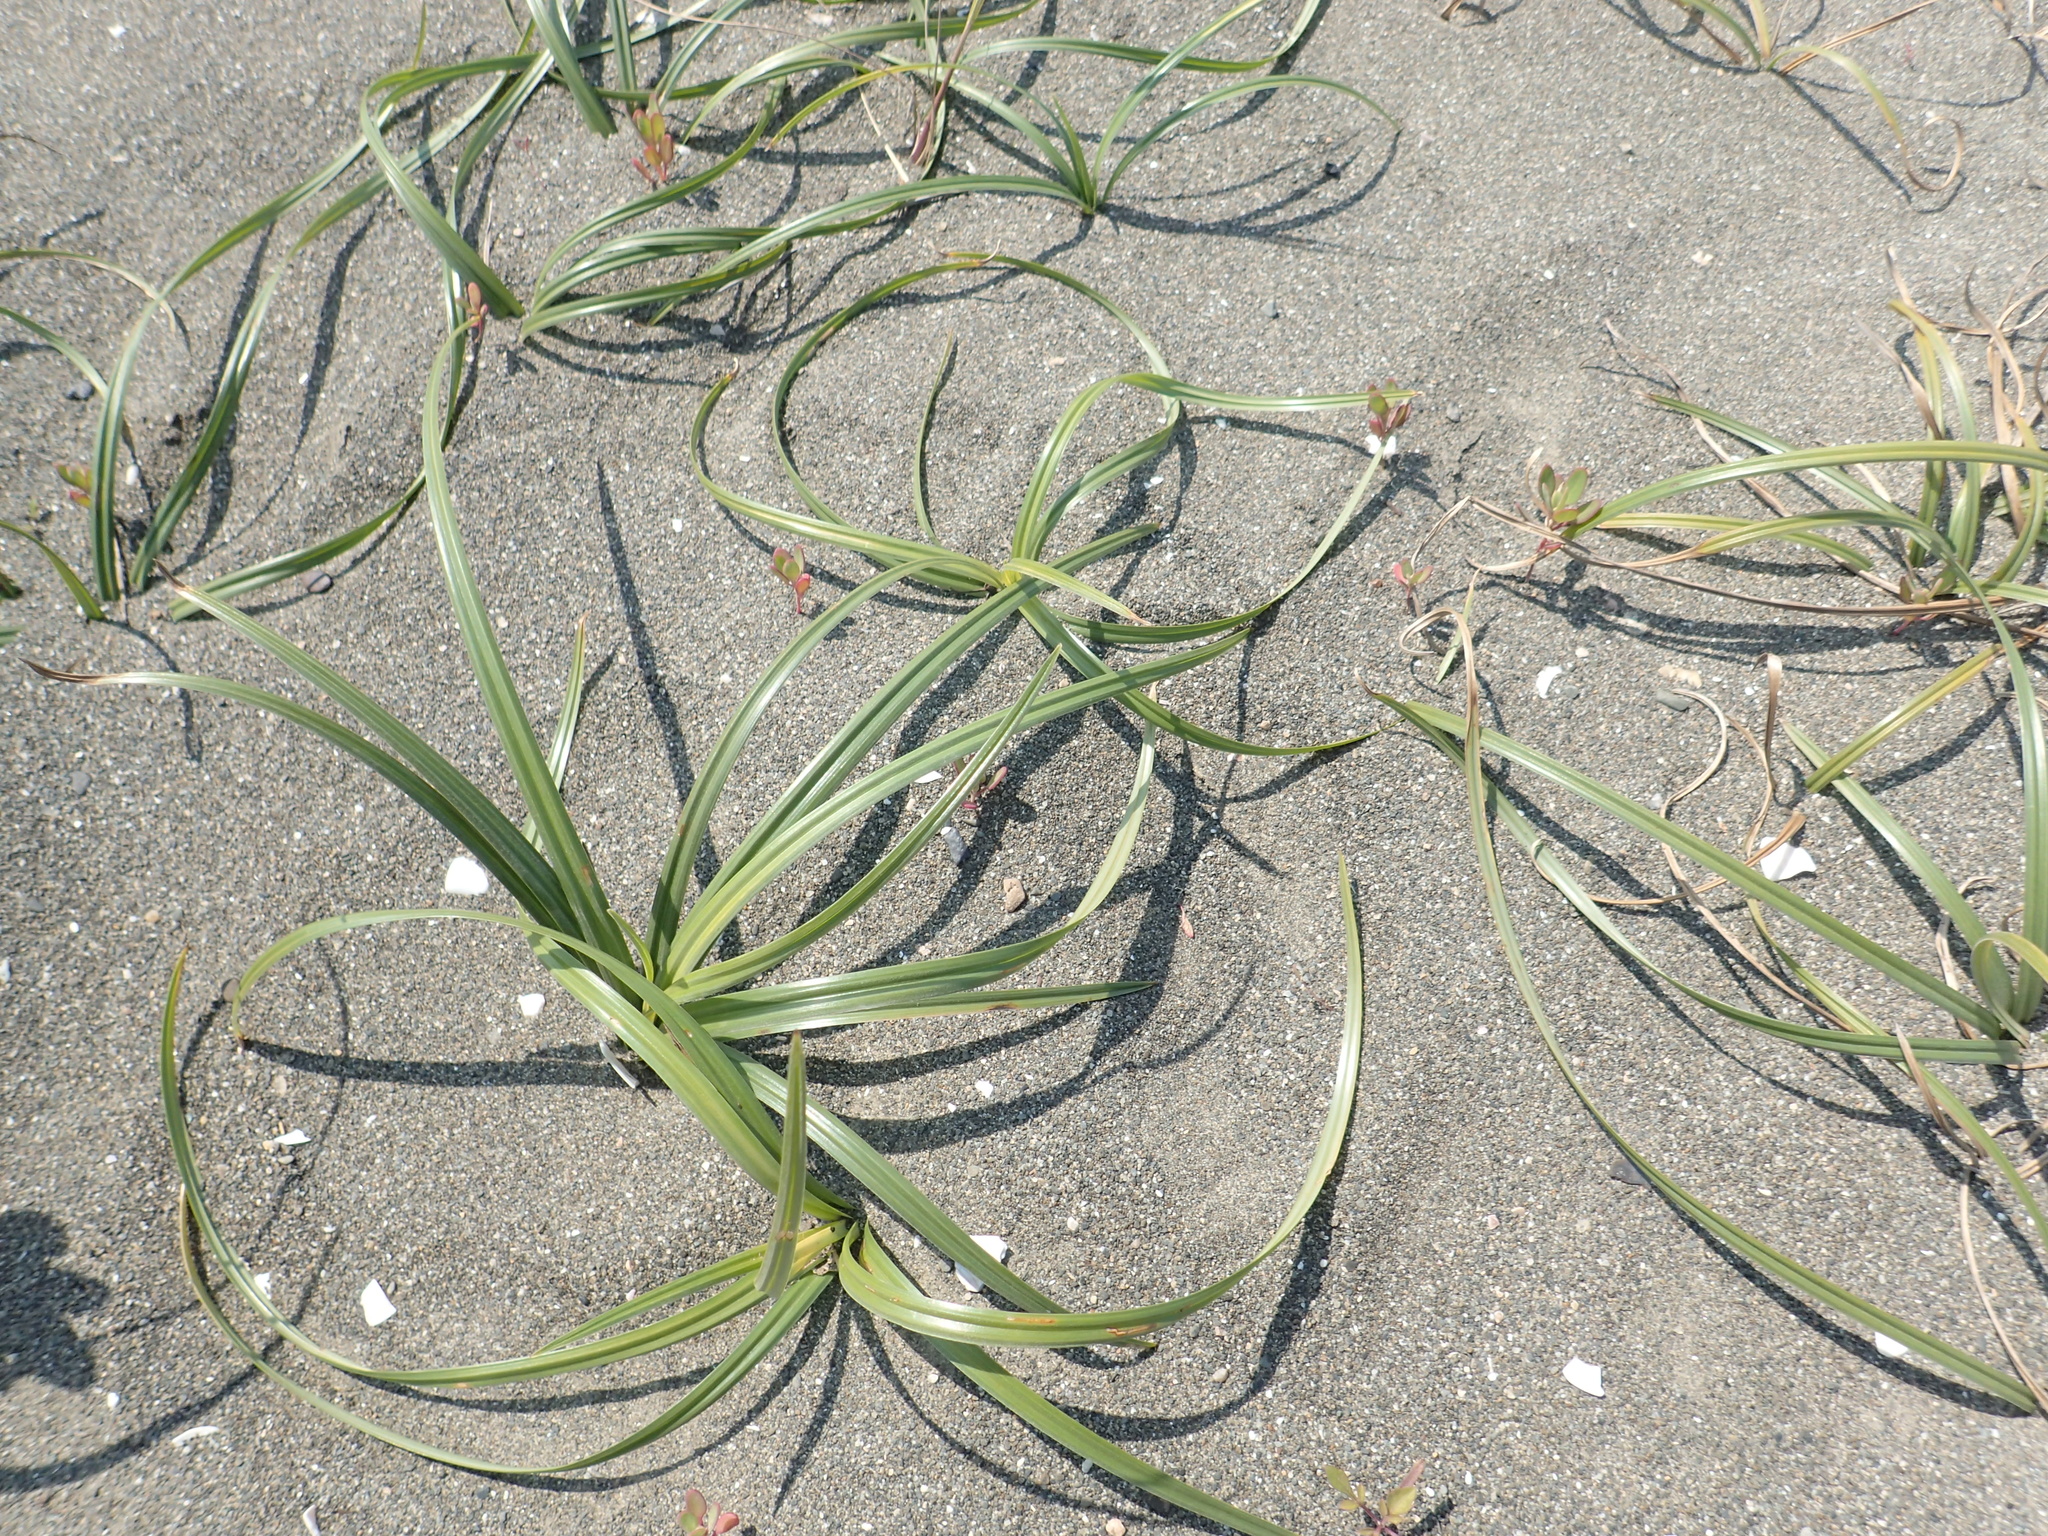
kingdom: Plantae
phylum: Tracheophyta
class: Liliopsida
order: Poales
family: Cyperaceae
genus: Cyperus
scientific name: Cyperus rotundus
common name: Nutgrass
